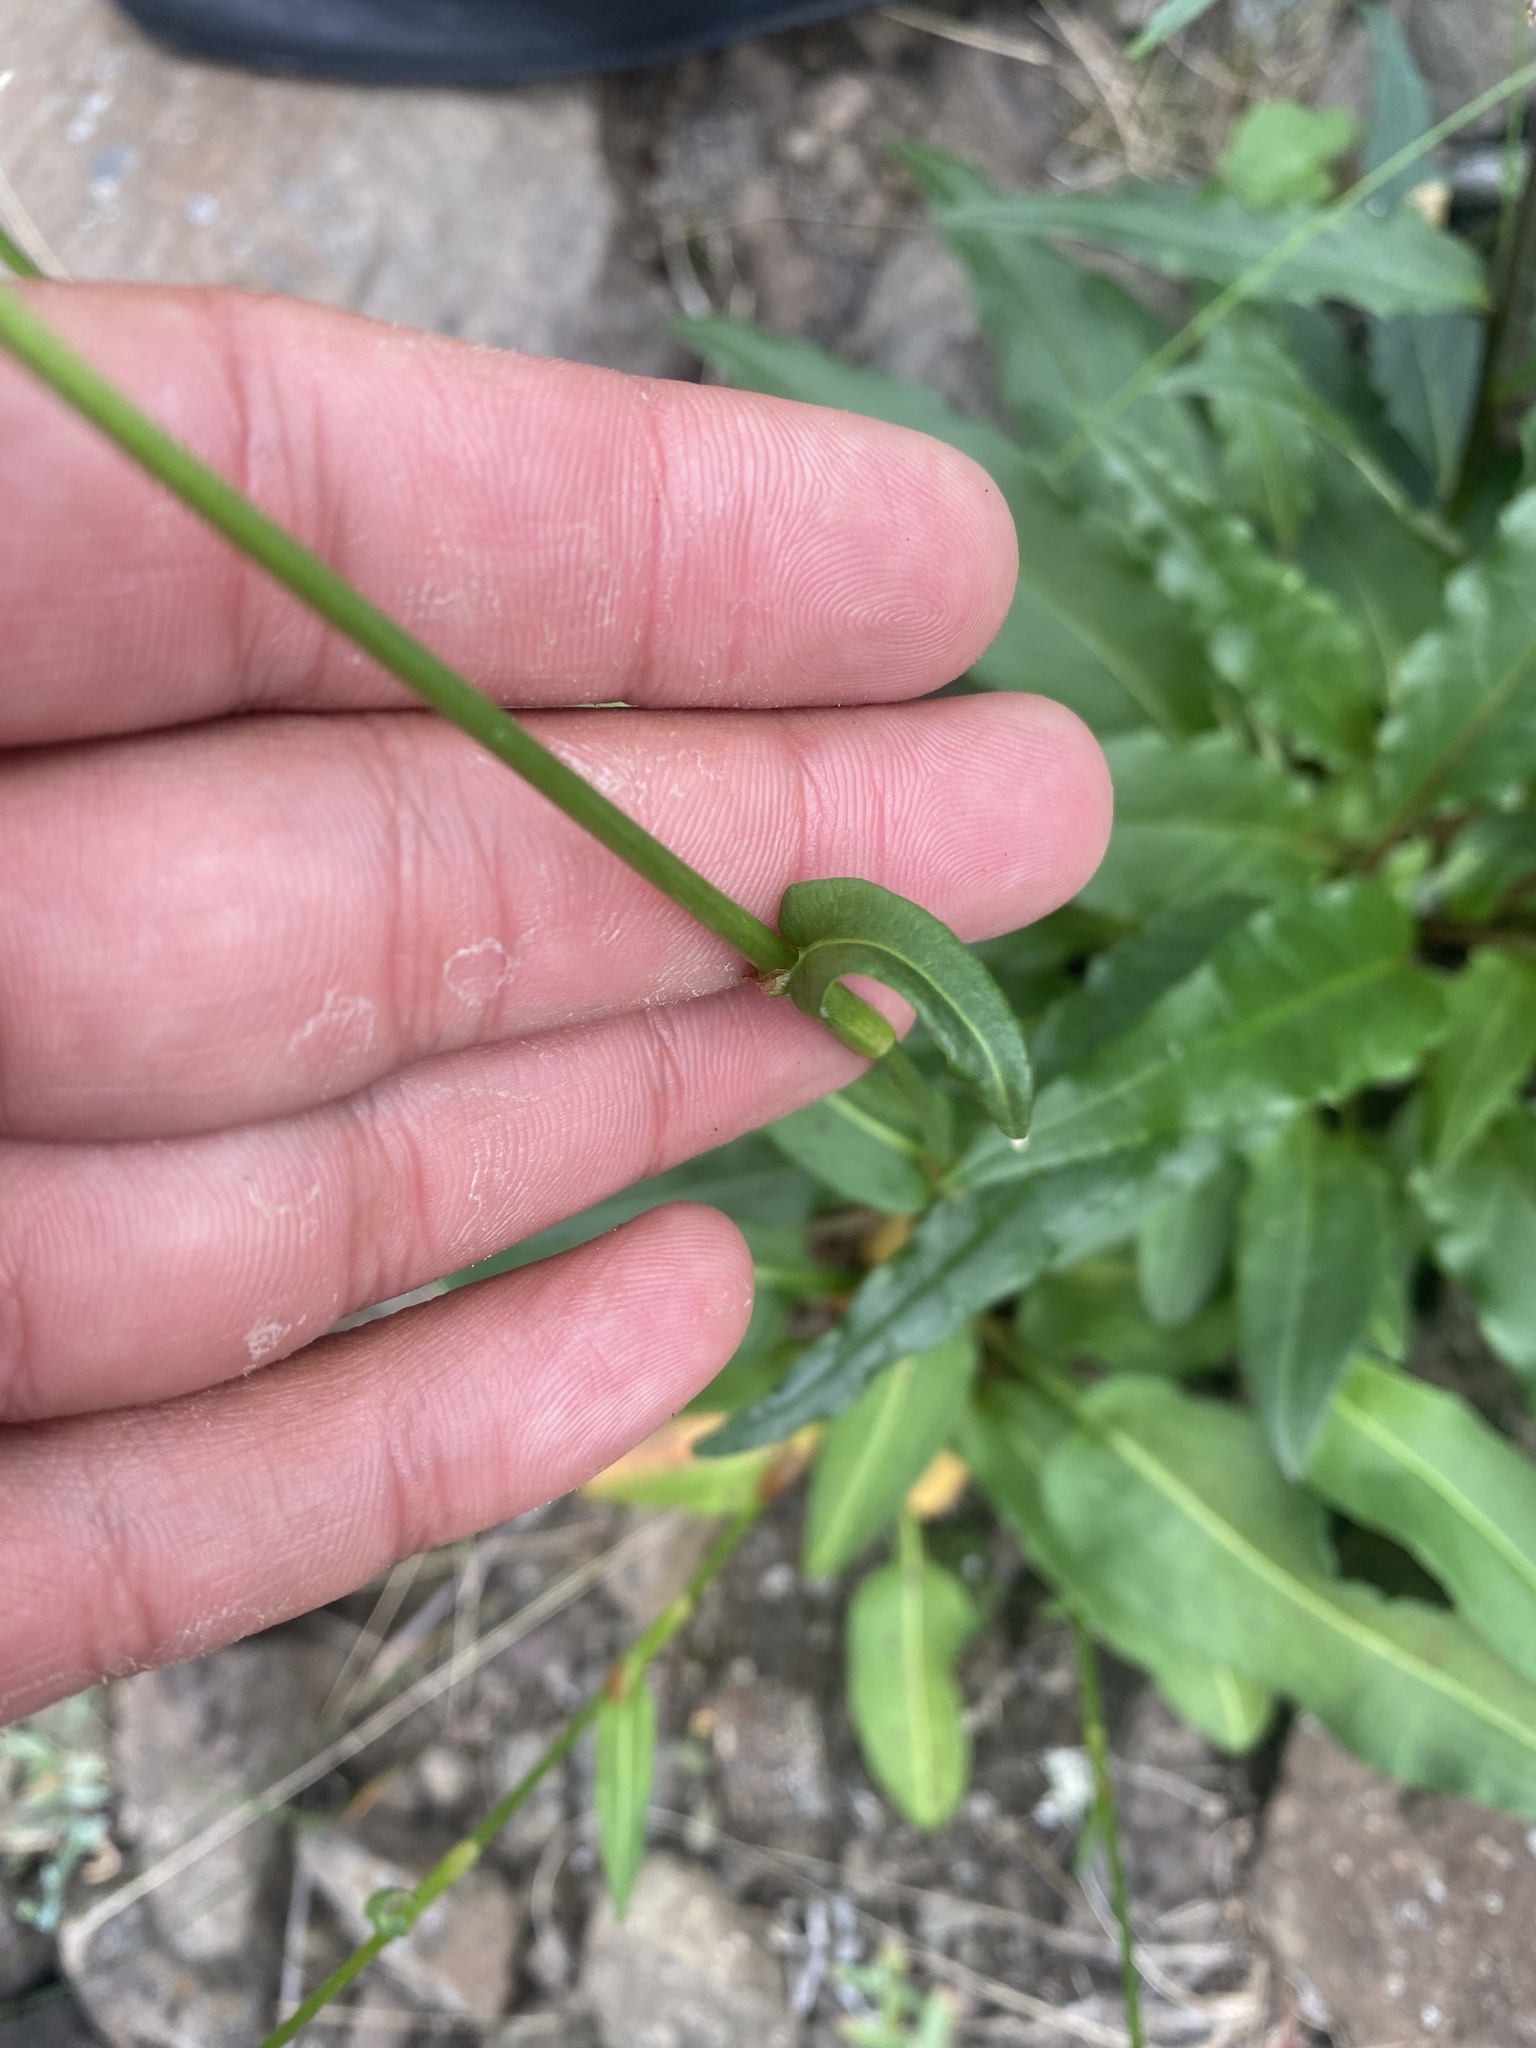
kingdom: Plantae
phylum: Tracheophyta
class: Magnoliopsida
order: Caryophyllales
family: Polygonaceae
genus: Bistorta
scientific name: Bistorta officinalis
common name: Common bistort
